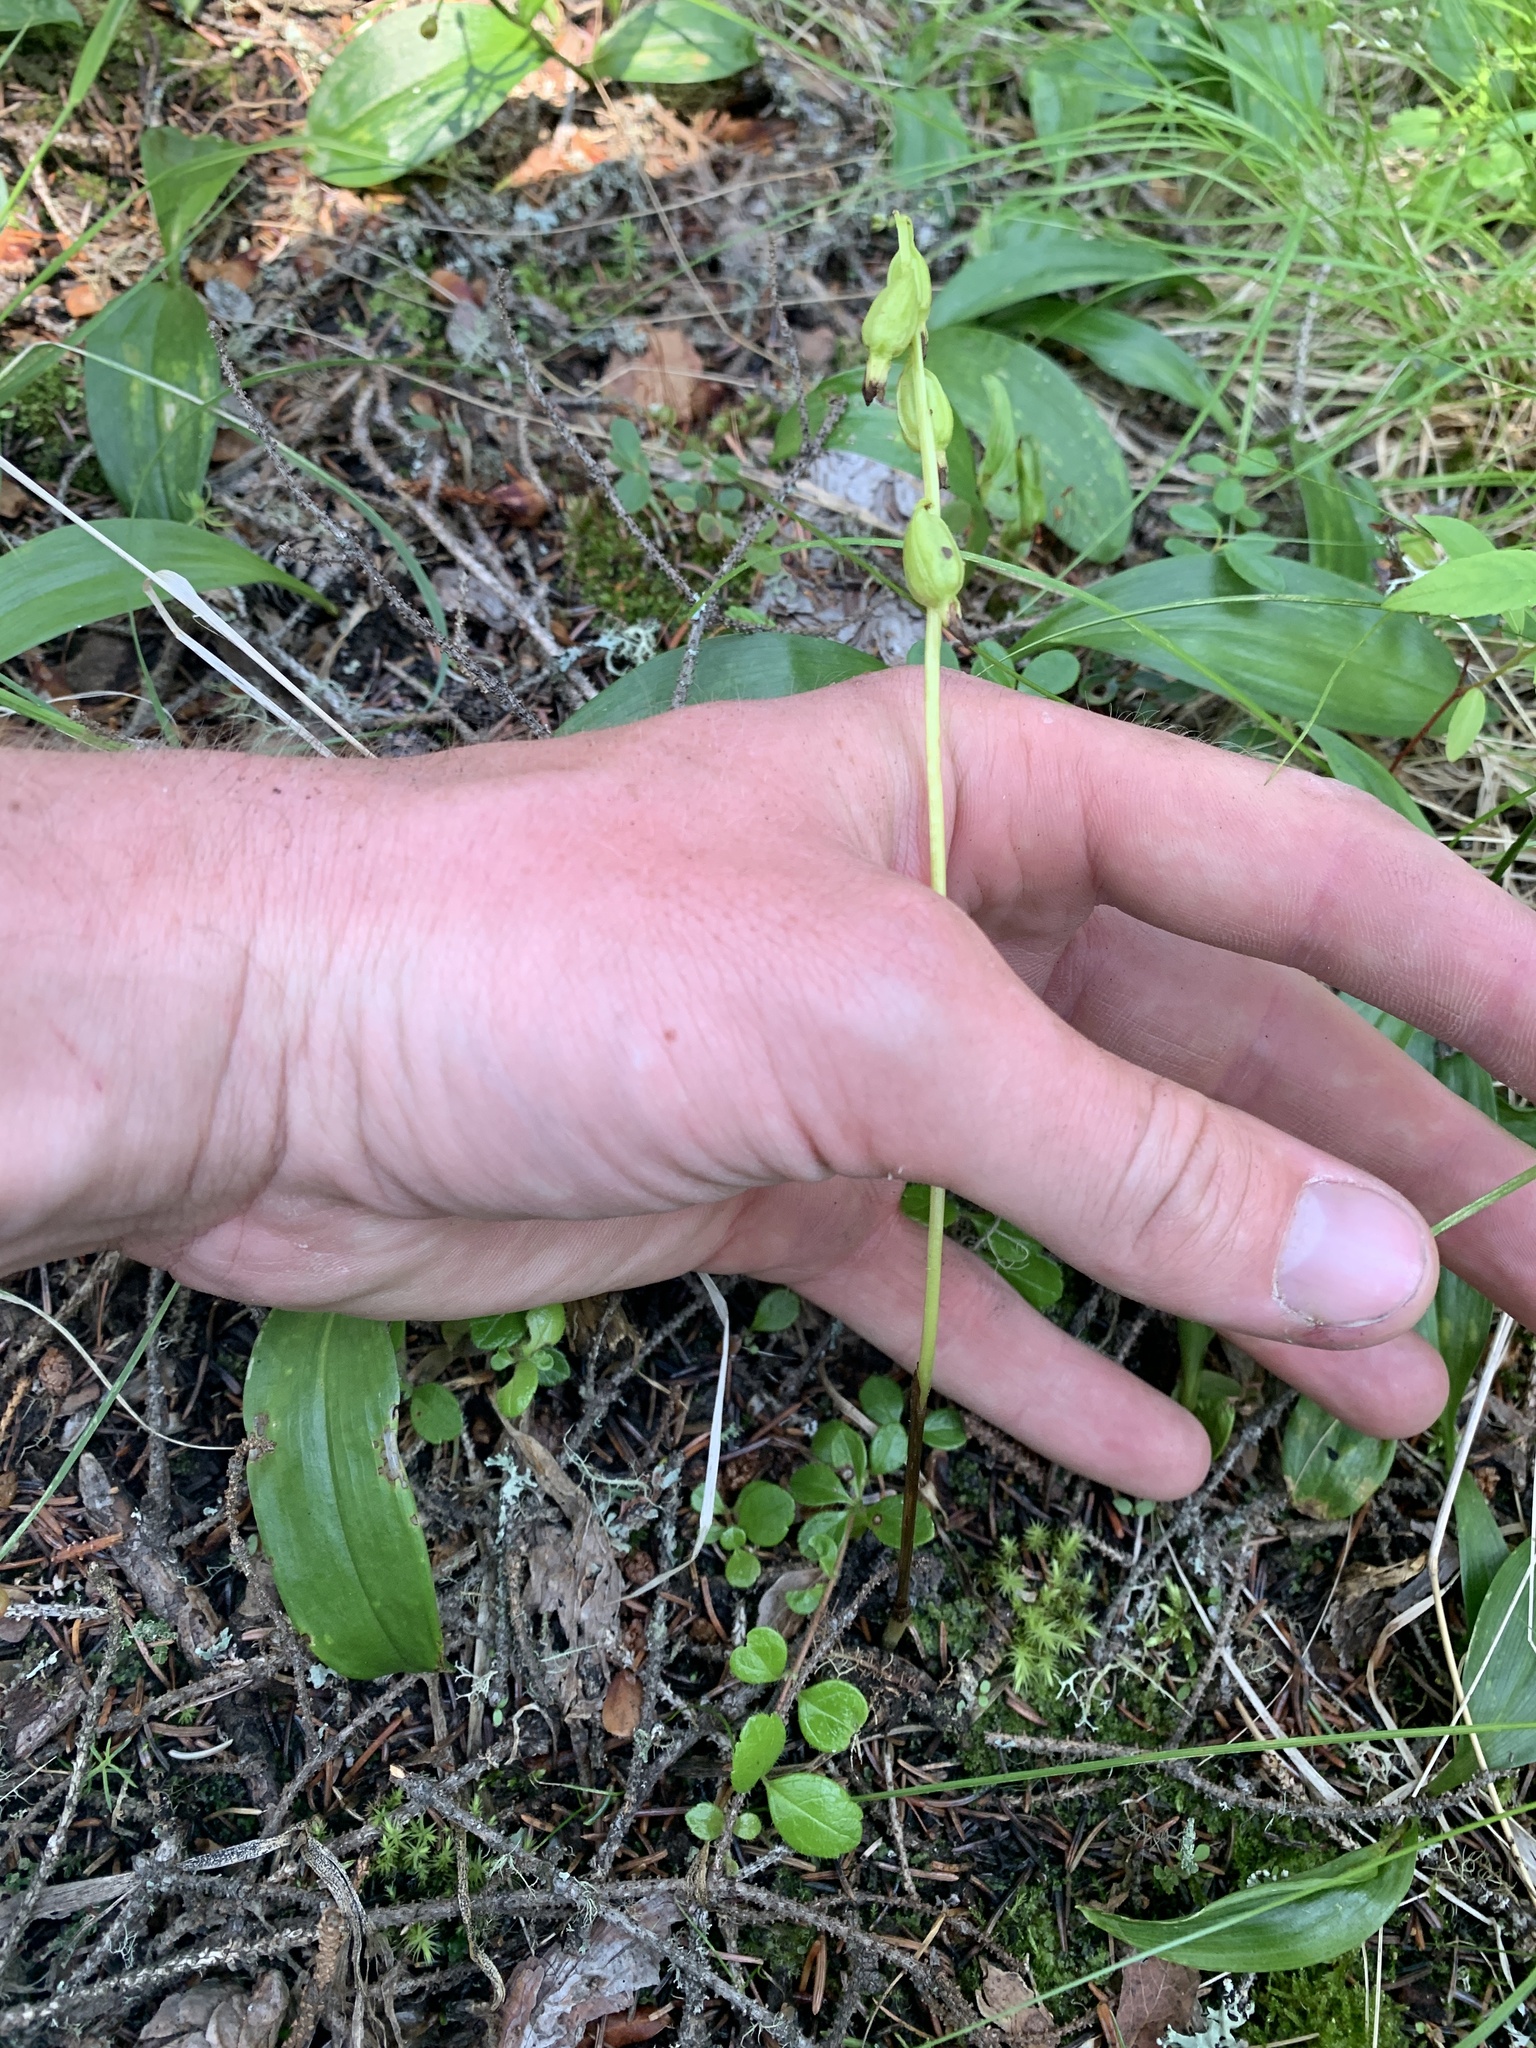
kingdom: Plantae
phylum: Tracheophyta
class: Liliopsida
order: Asparagales
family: Orchidaceae
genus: Corallorhiza
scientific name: Corallorhiza trifida
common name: Yellow coralroot
